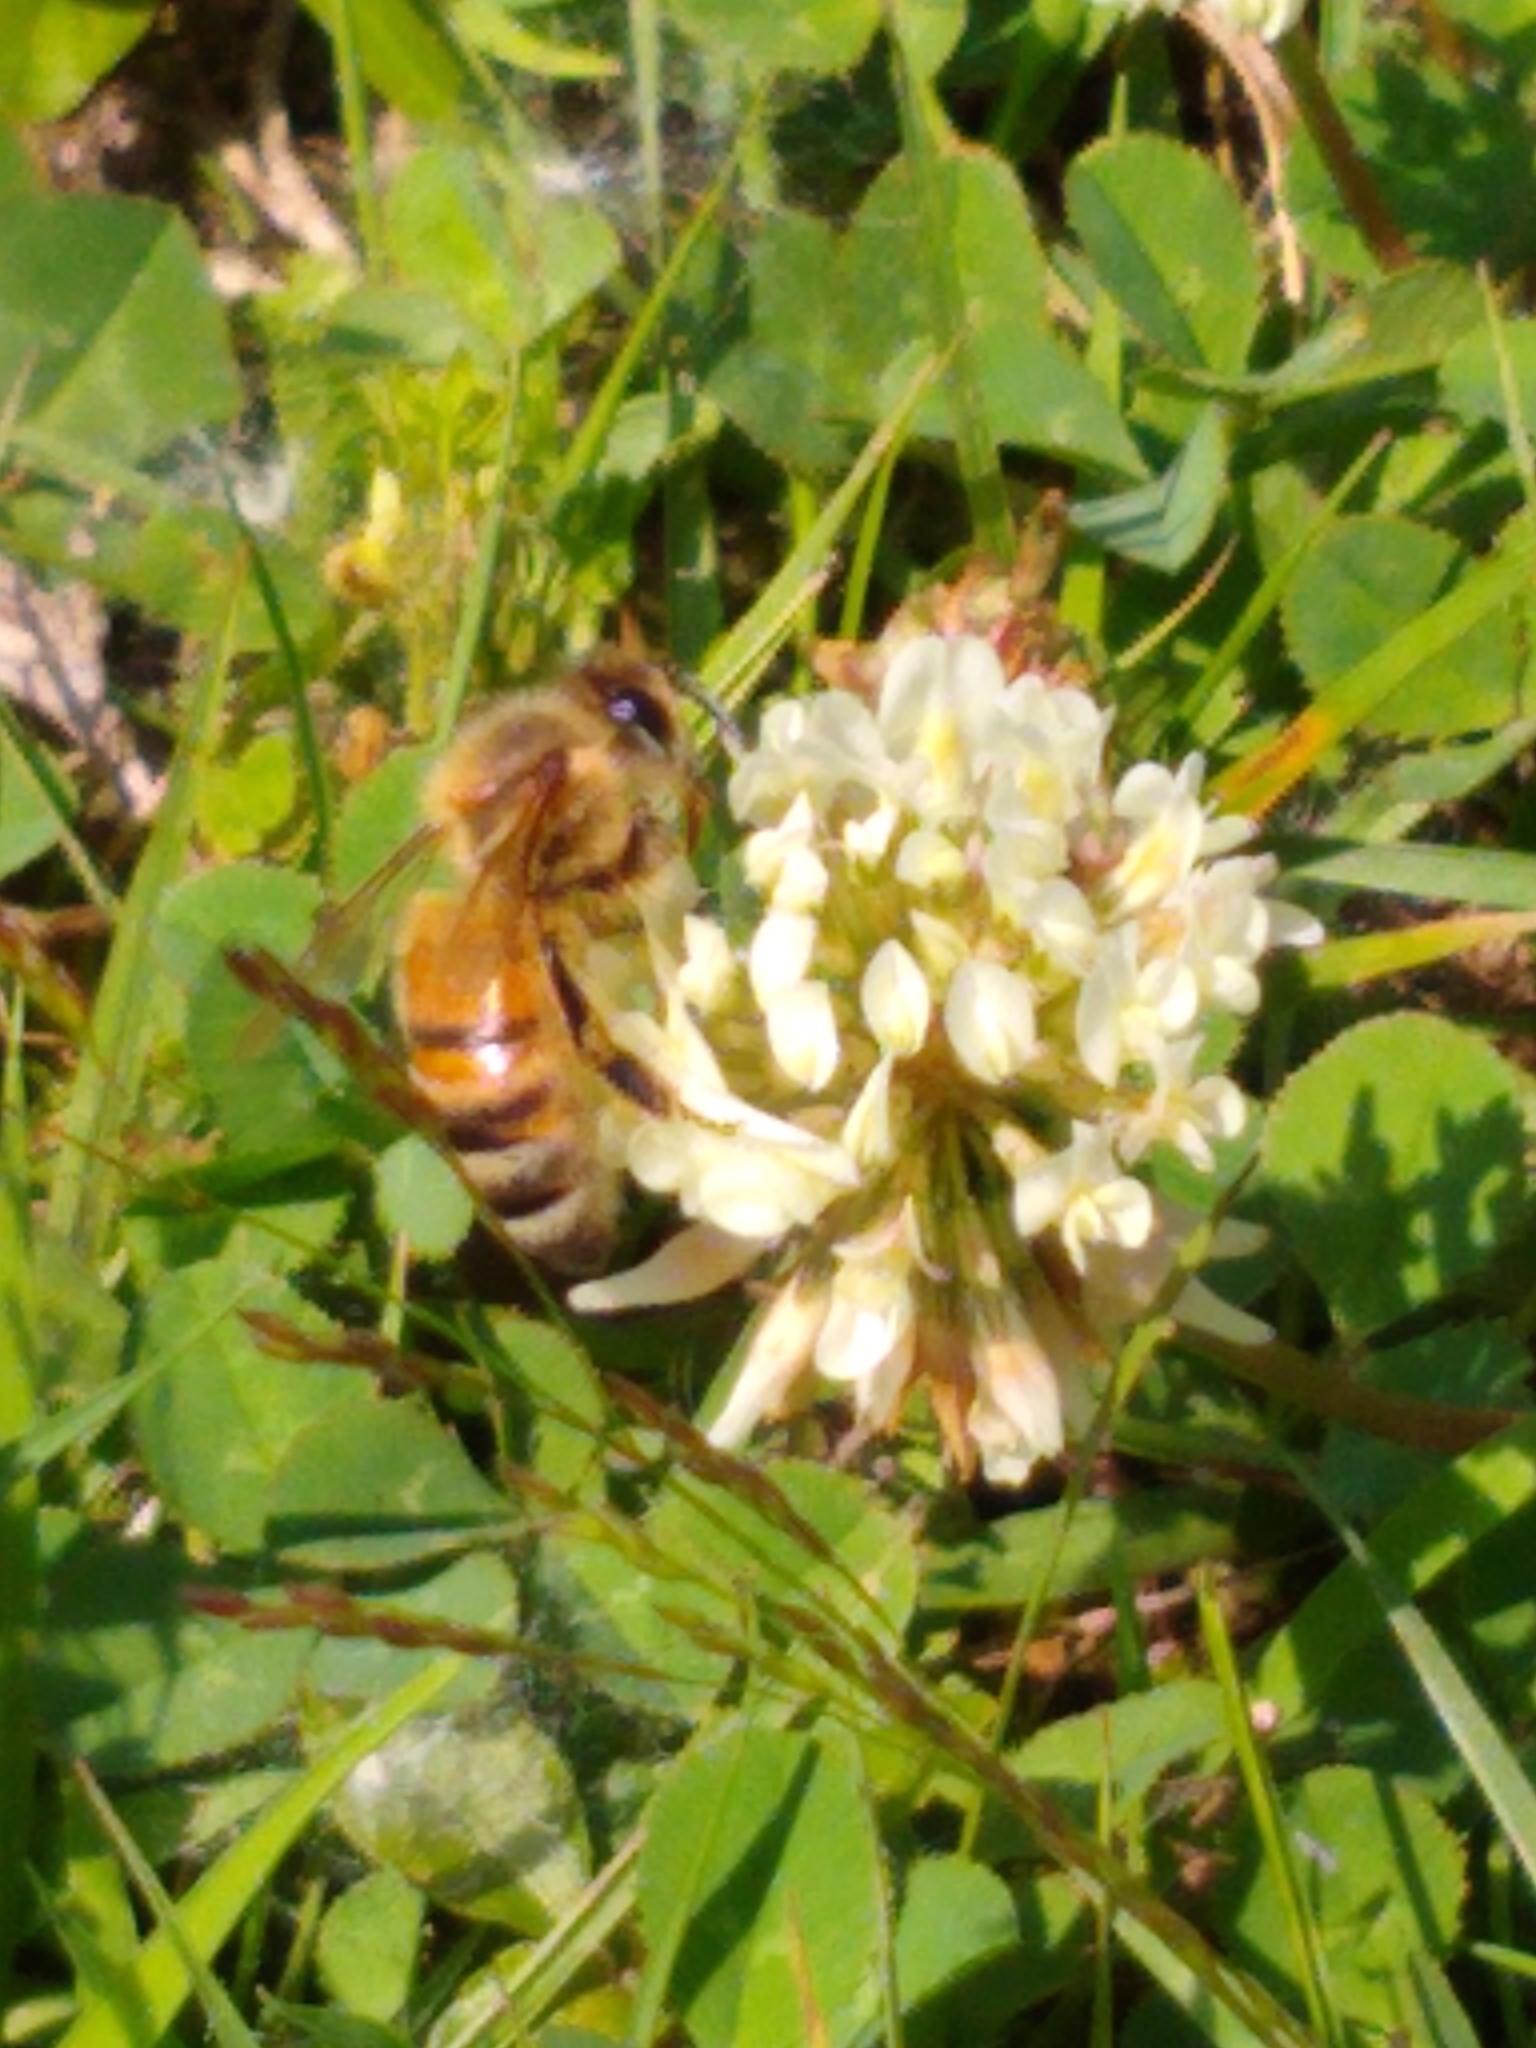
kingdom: Animalia
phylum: Arthropoda
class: Insecta
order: Hymenoptera
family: Apidae
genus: Apis
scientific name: Apis mellifera
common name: Honey bee
